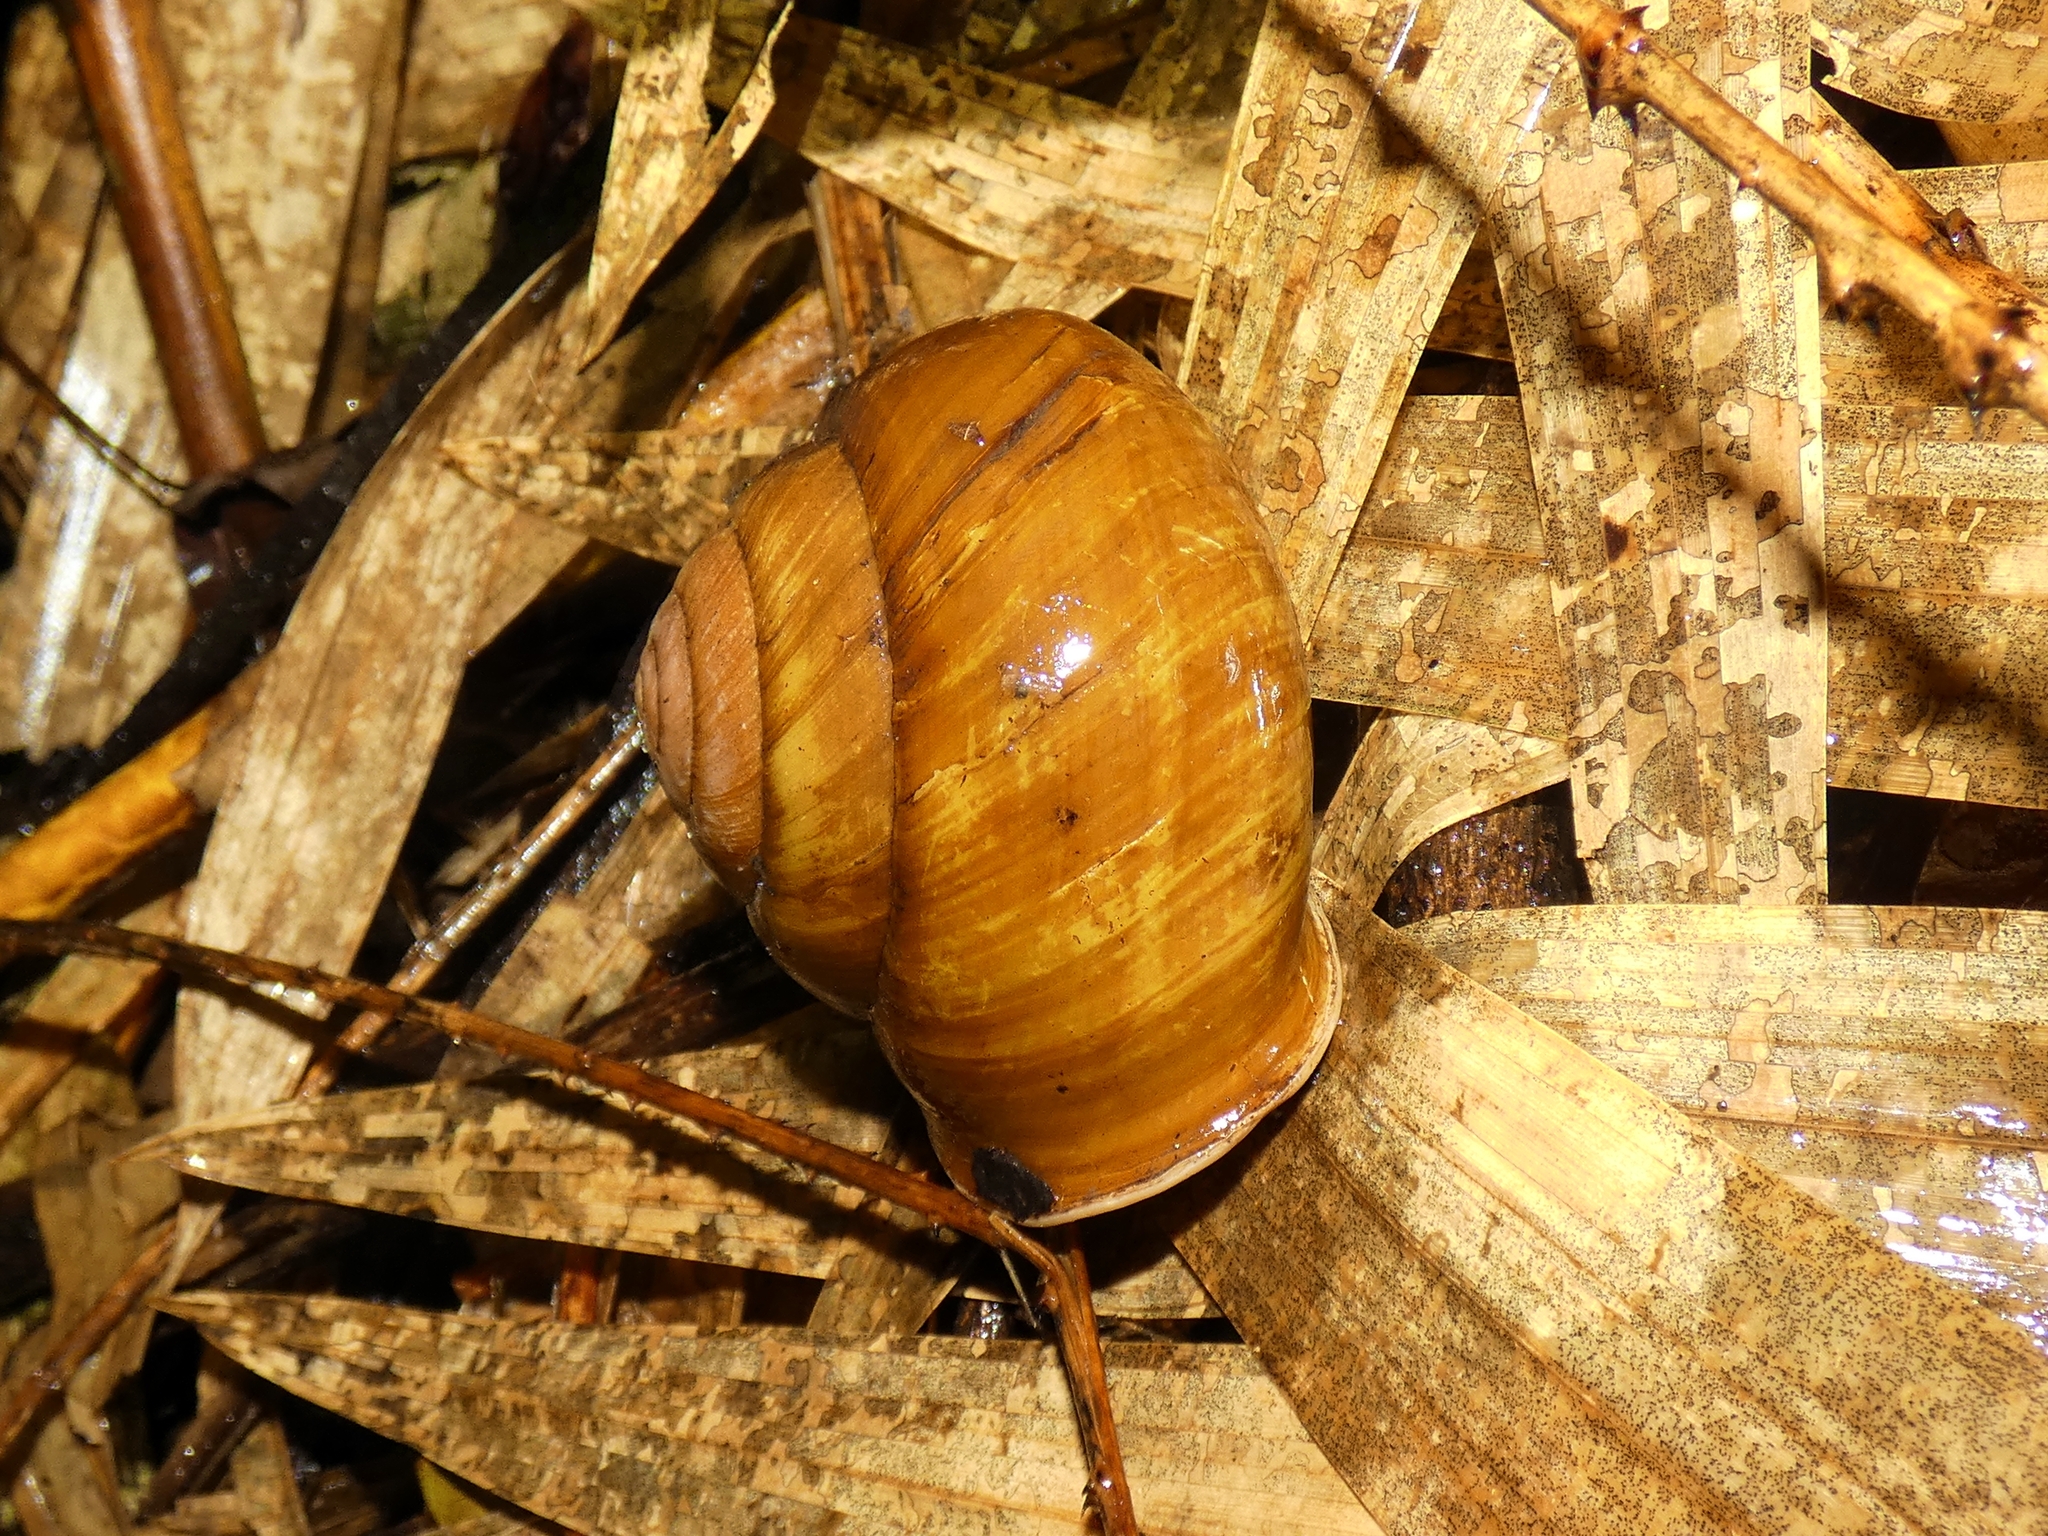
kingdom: Animalia
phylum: Mollusca
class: Gastropoda
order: Stylommatophora
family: Camaenidae
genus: Hadra
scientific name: Hadra bipartita
